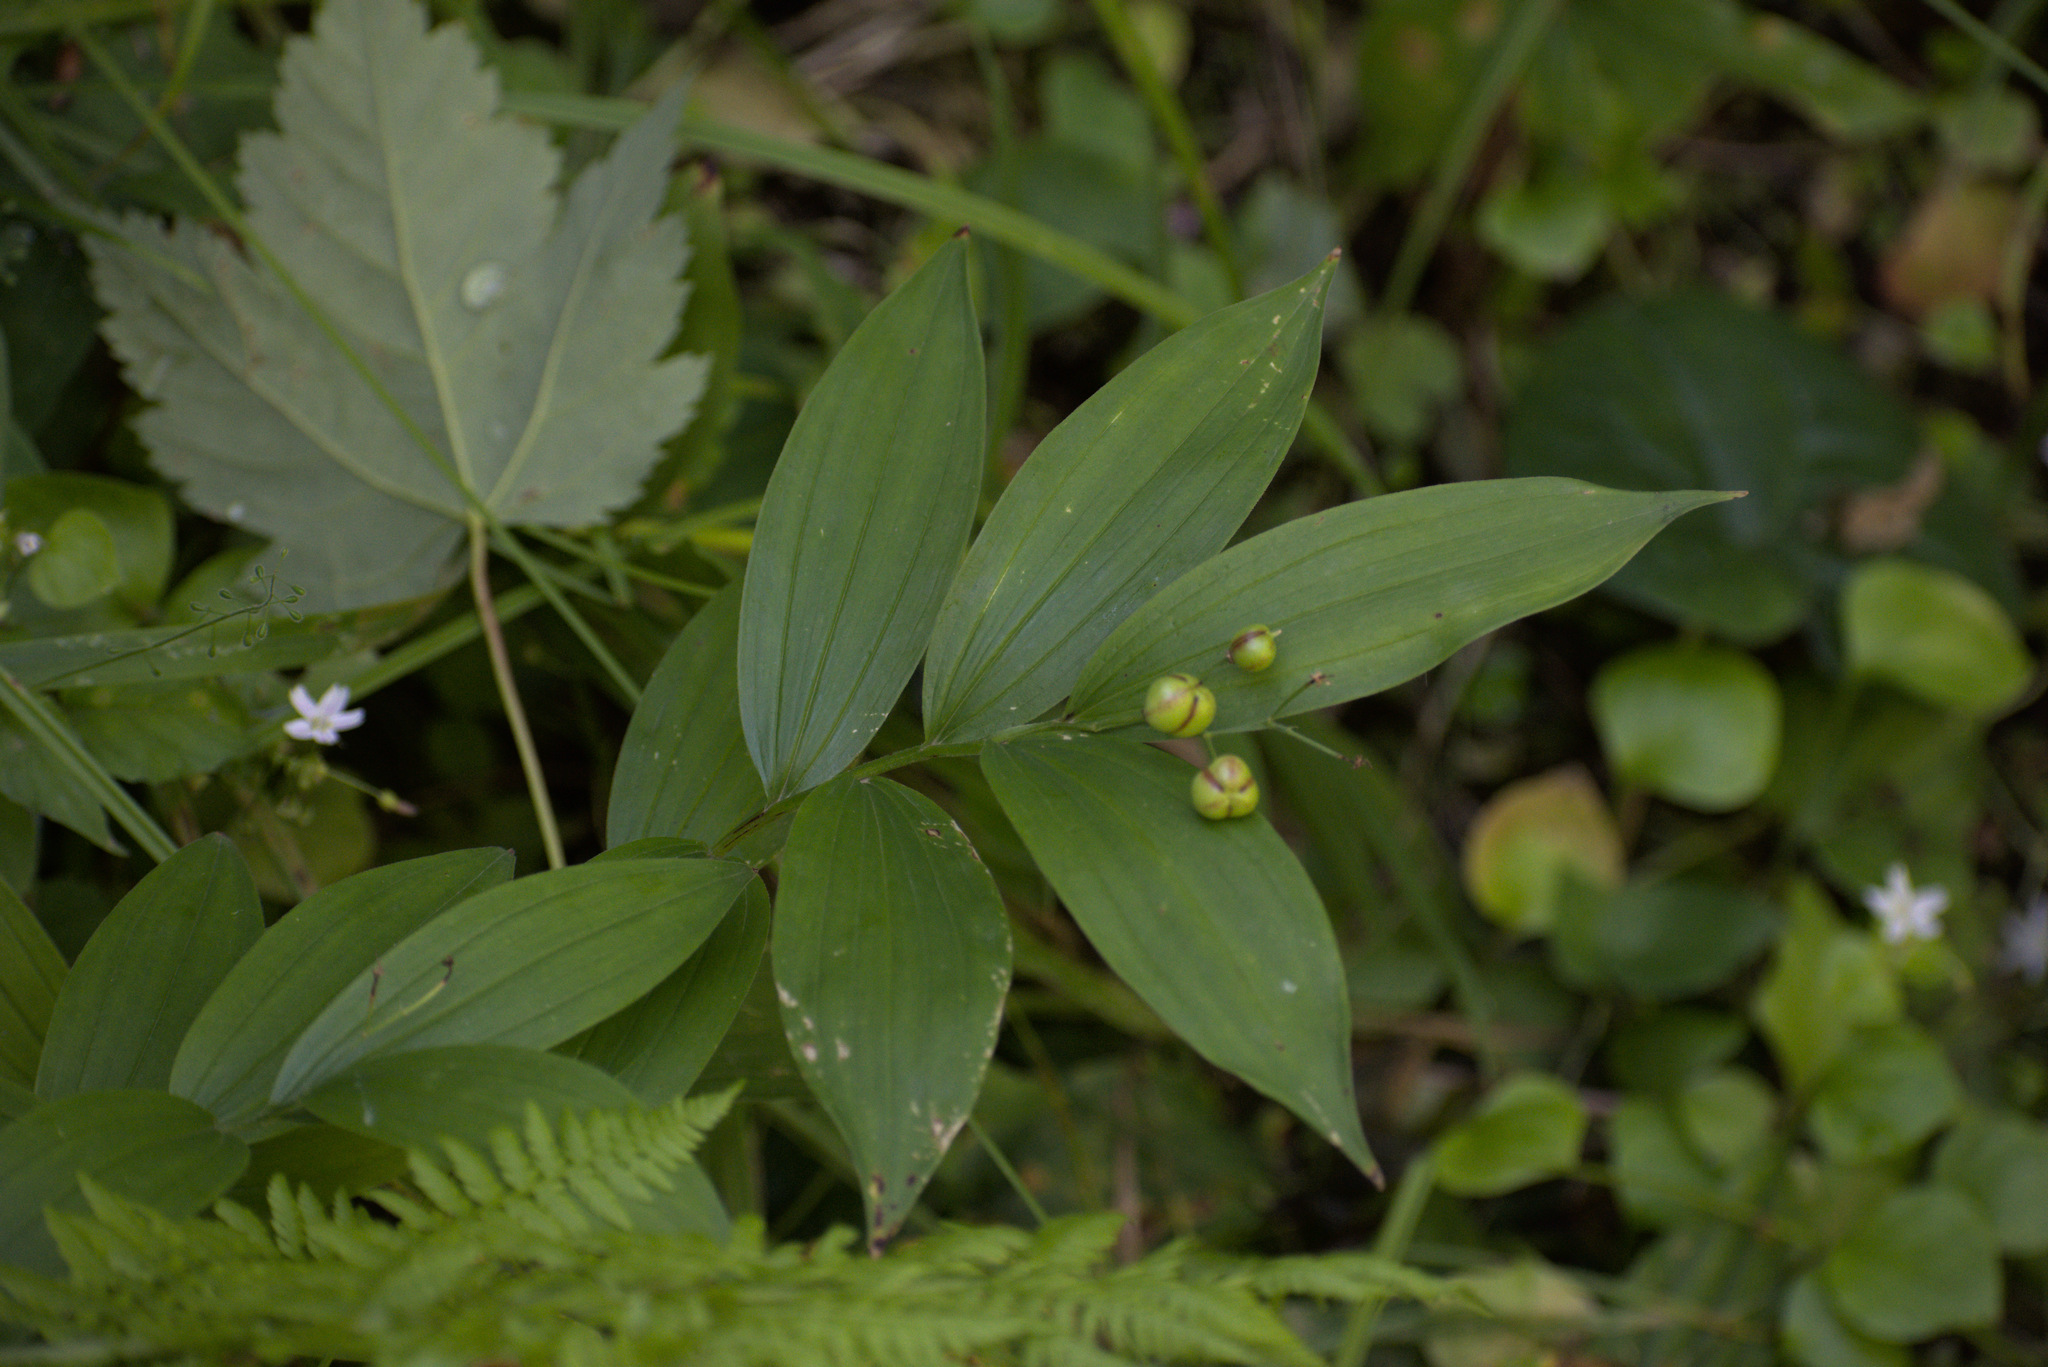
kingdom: Plantae
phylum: Tracheophyta
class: Liliopsida
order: Asparagales
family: Asparagaceae
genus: Maianthemum
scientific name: Maianthemum stellatum
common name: Little false solomon's seal
